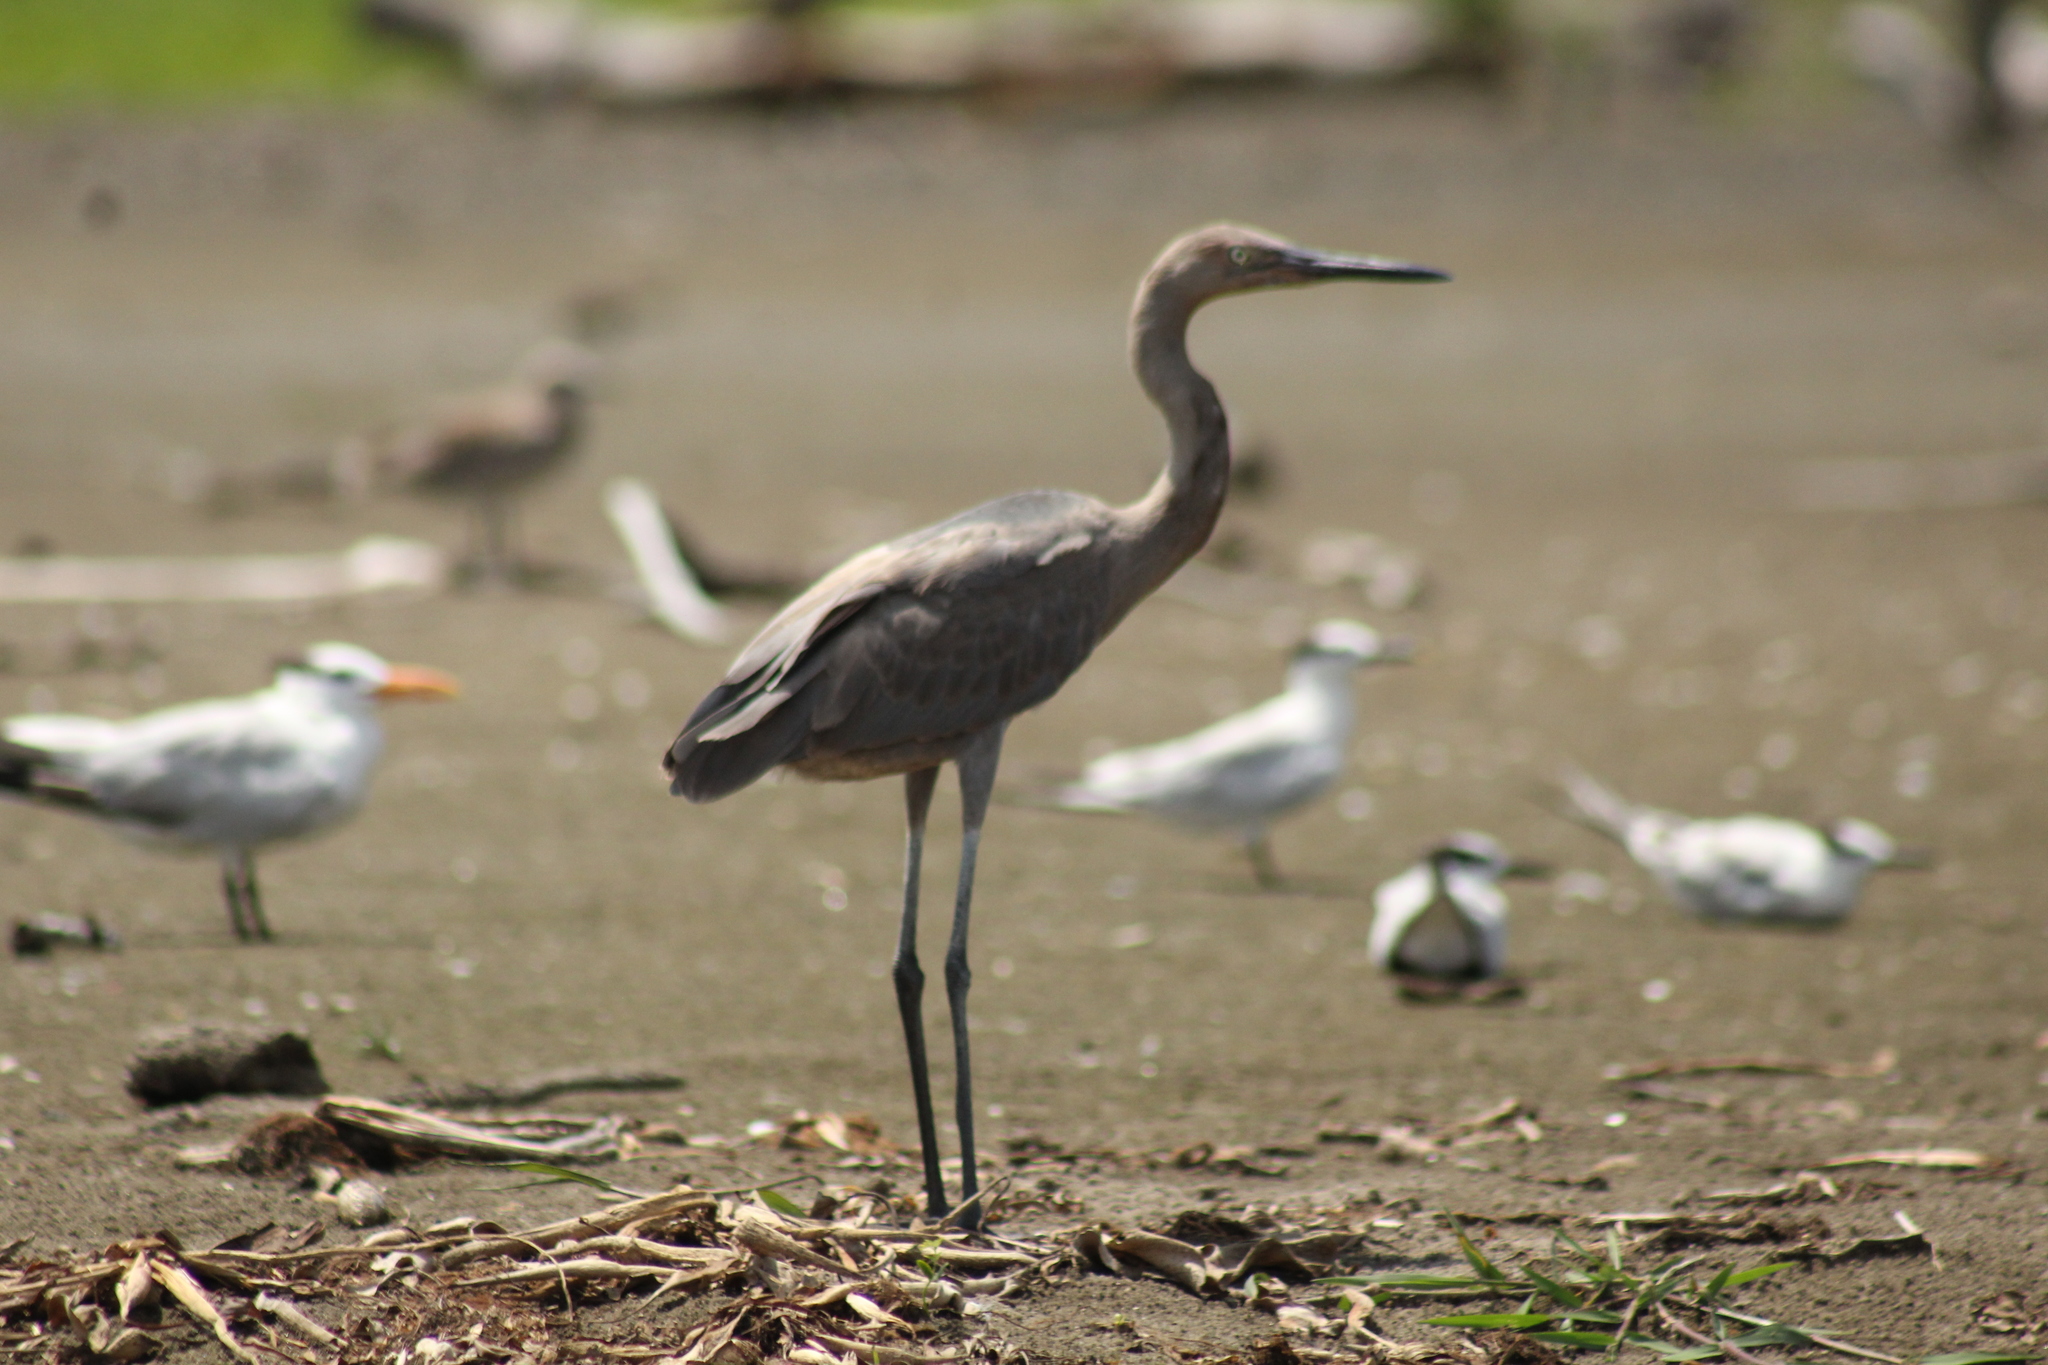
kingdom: Animalia
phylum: Chordata
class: Aves
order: Pelecaniformes
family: Ardeidae
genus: Egretta
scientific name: Egretta rufescens
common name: Reddish egret
